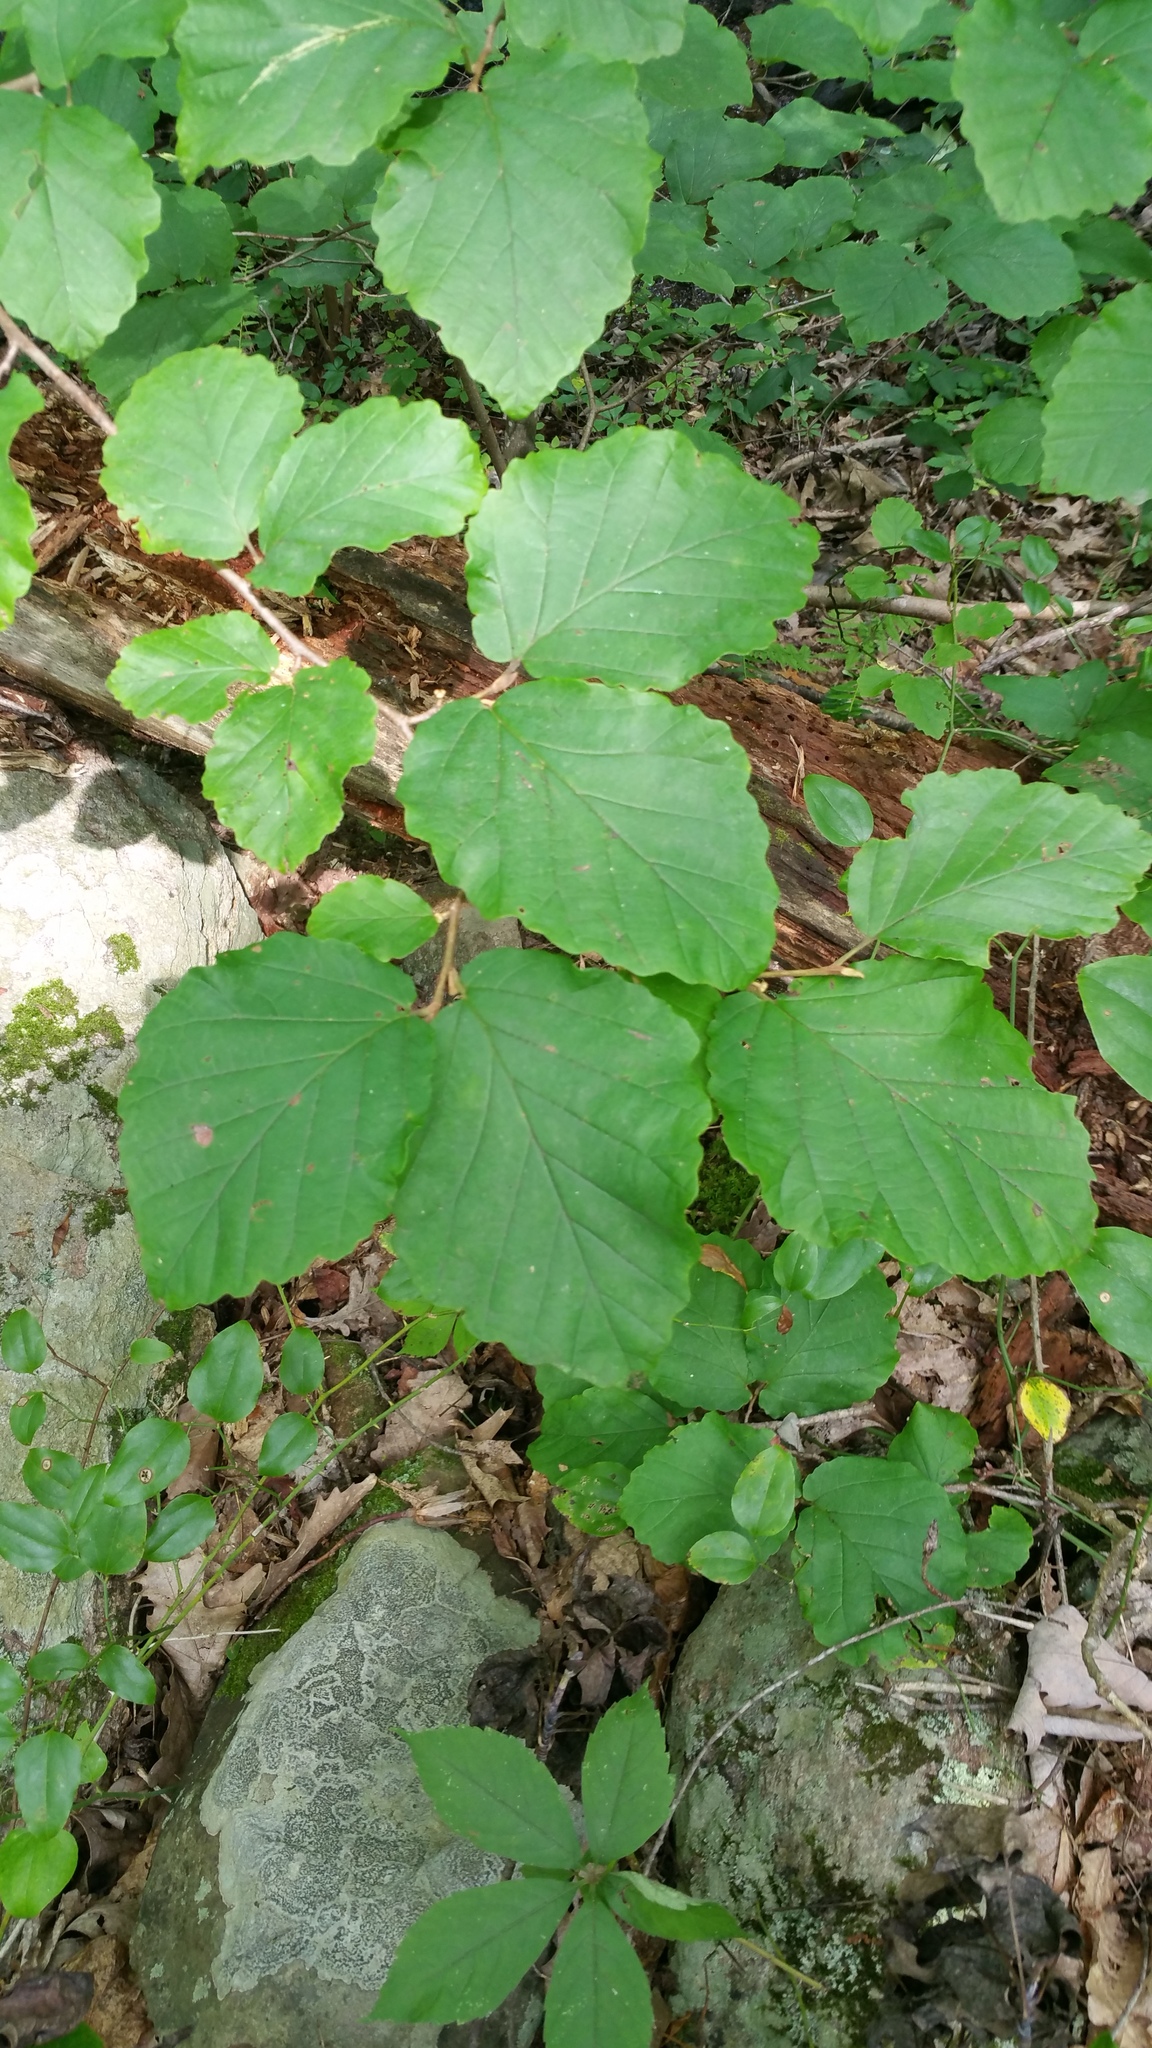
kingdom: Plantae
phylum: Tracheophyta
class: Magnoliopsida
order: Saxifragales
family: Hamamelidaceae
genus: Hamamelis
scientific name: Hamamelis virginiana
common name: Witch-hazel
